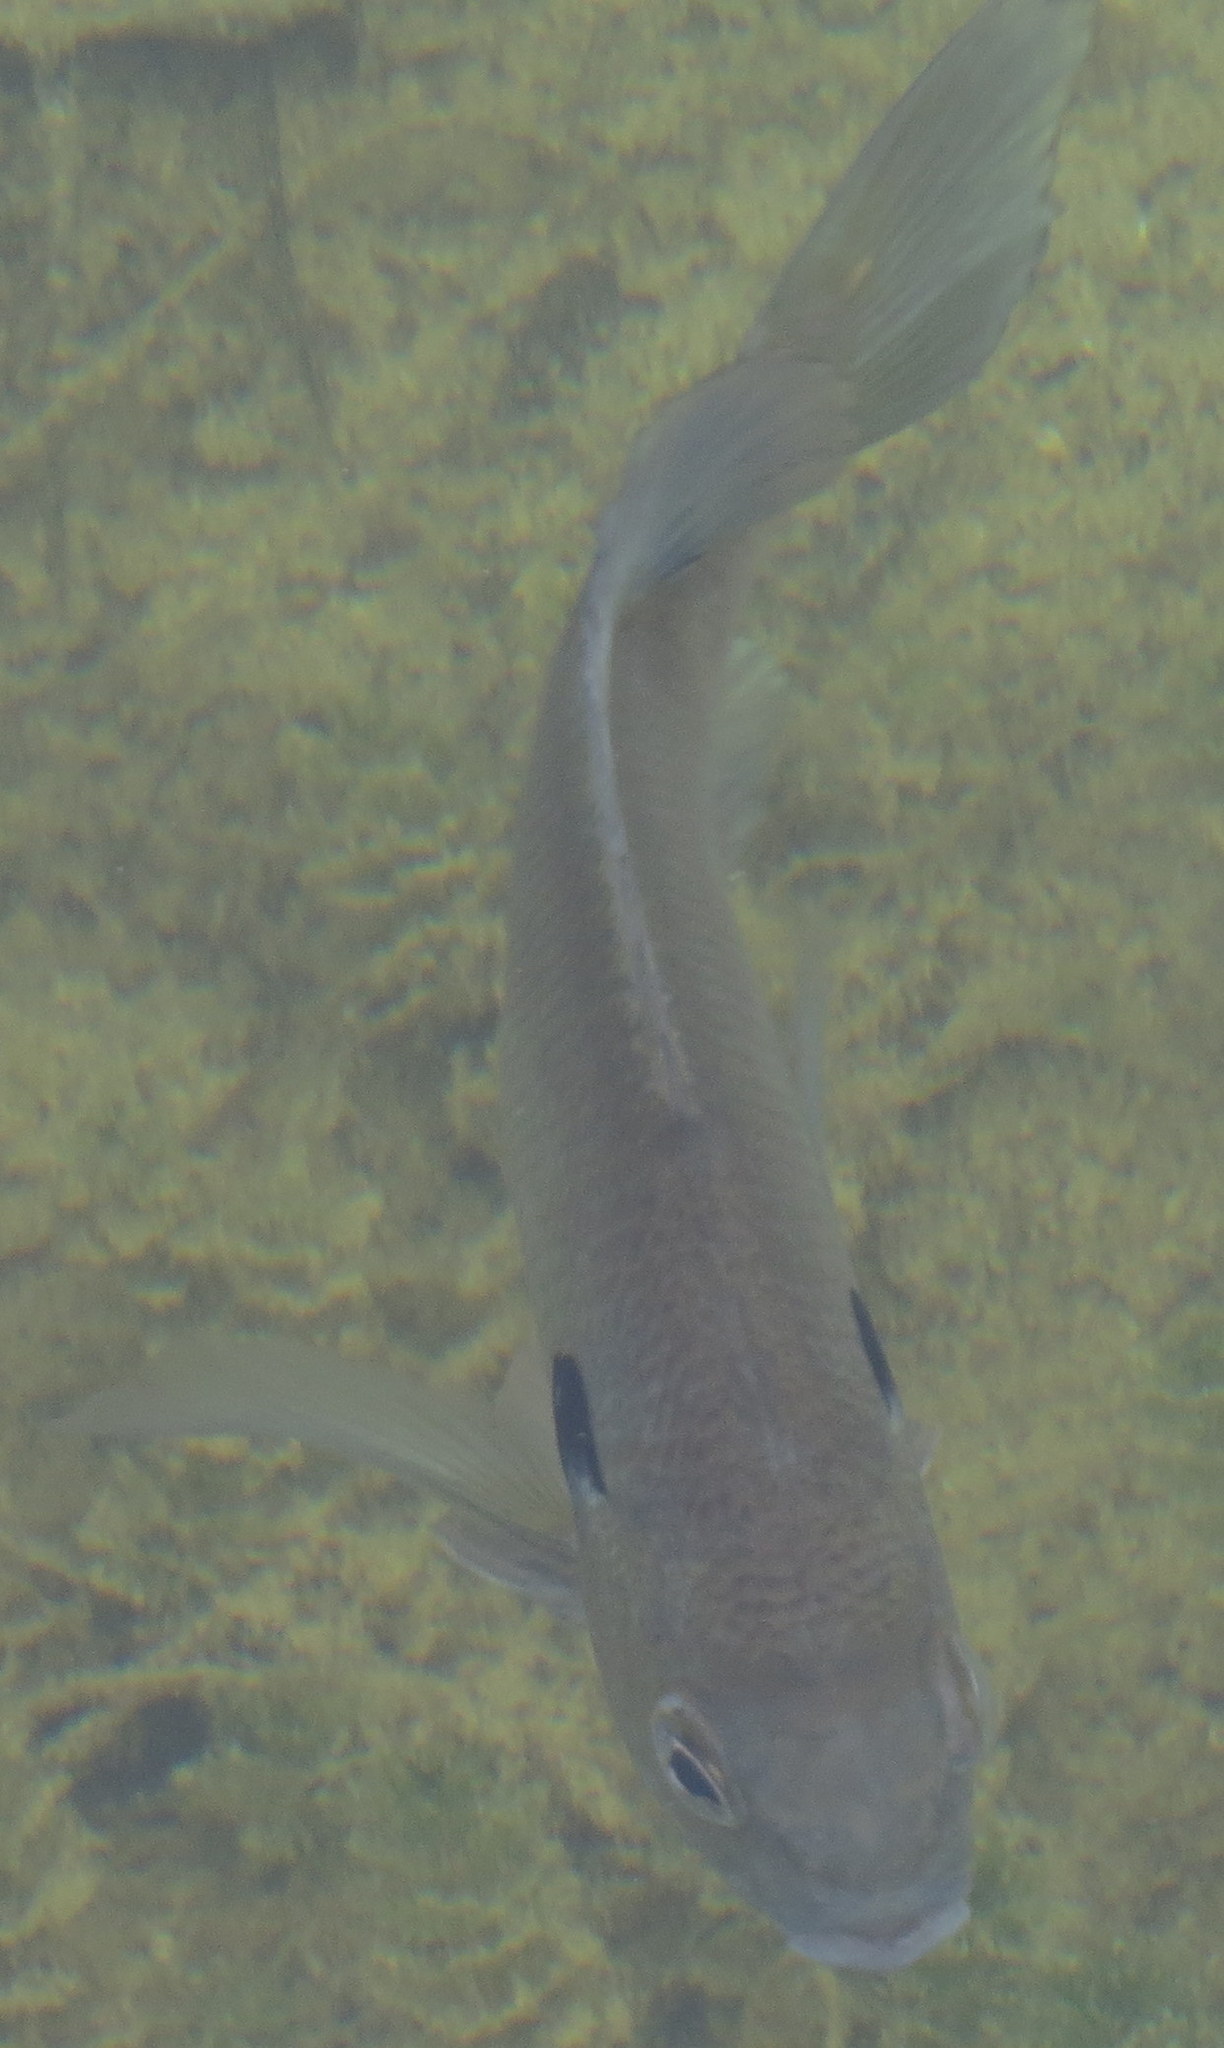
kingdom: Animalia
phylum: Chordata
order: Perciformes
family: Centrarchidae
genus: Lepomis
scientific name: Lepomis macrochirus
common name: Bluegill
